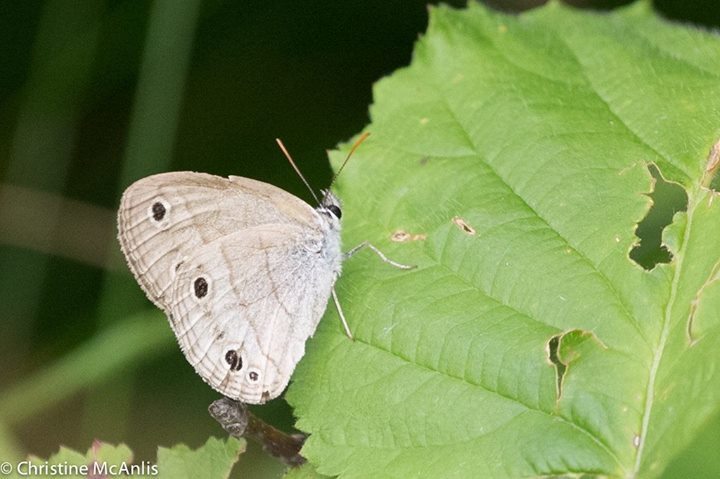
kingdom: Animalia
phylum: Arthropoda
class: Insecta
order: Lepidoptera
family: Nymphalidae
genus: Euptychia
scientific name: Euptychia cymela
